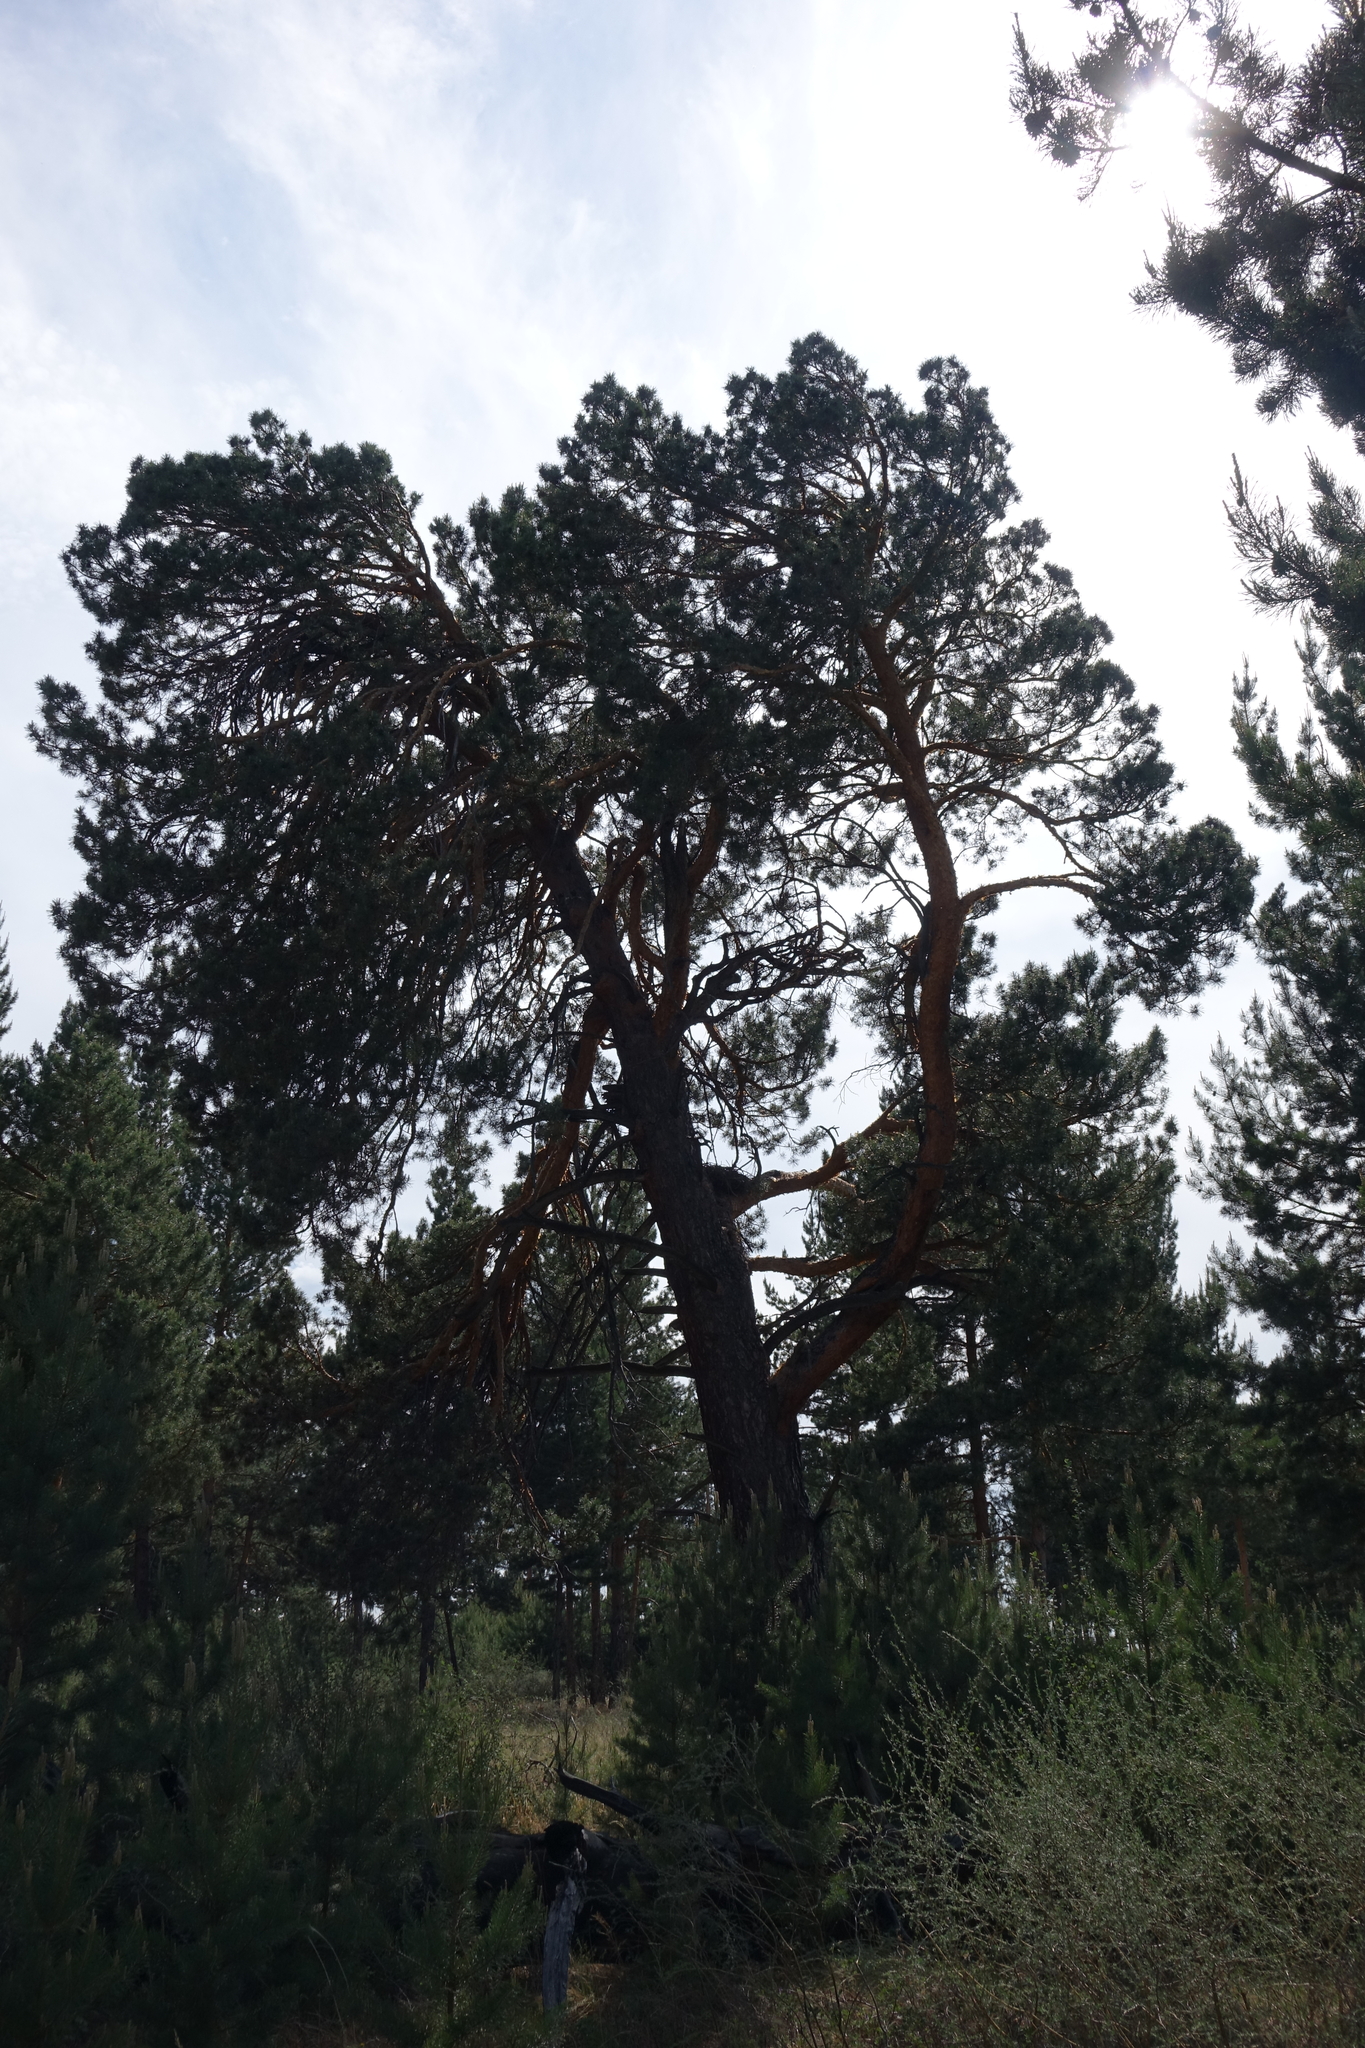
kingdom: Plantae
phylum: Tracheophyta
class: Pinopsida
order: Pinales
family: Pinaceae
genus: Pinus
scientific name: Pinus sylvestris
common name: Scots pine
